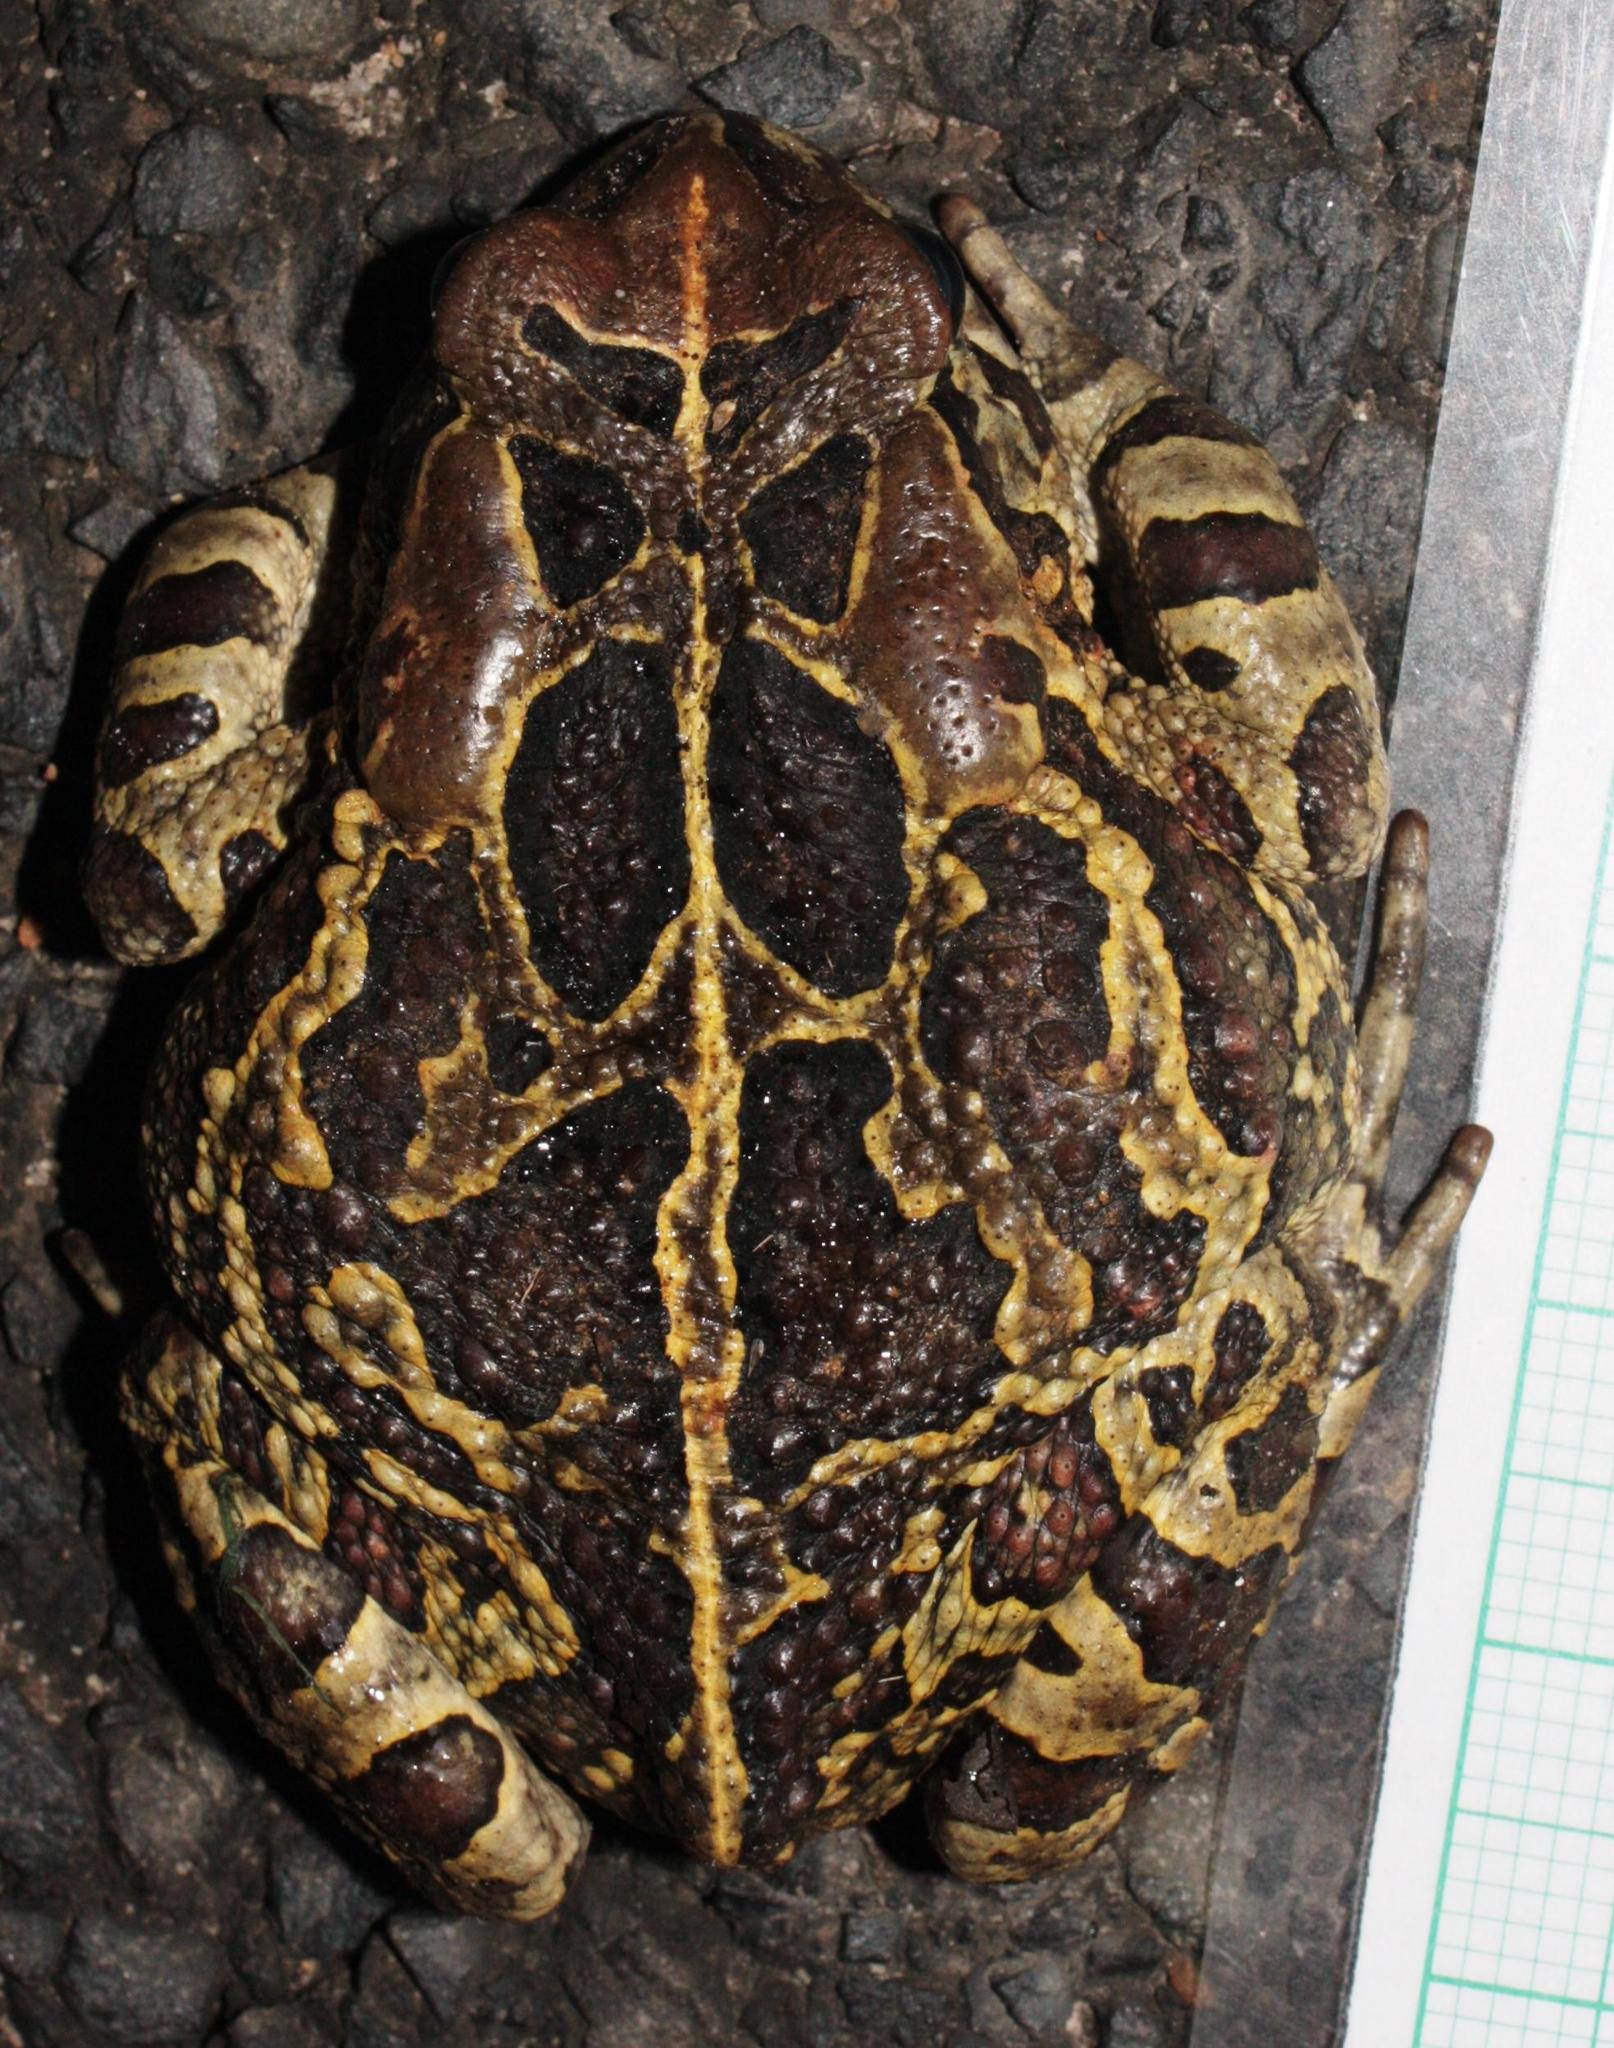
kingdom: Animalia
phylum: Chordata
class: Amphibia
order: Anura
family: Bufonidae
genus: Sclerophrys
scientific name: Sclerophrys pantherina
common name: Panther toad
